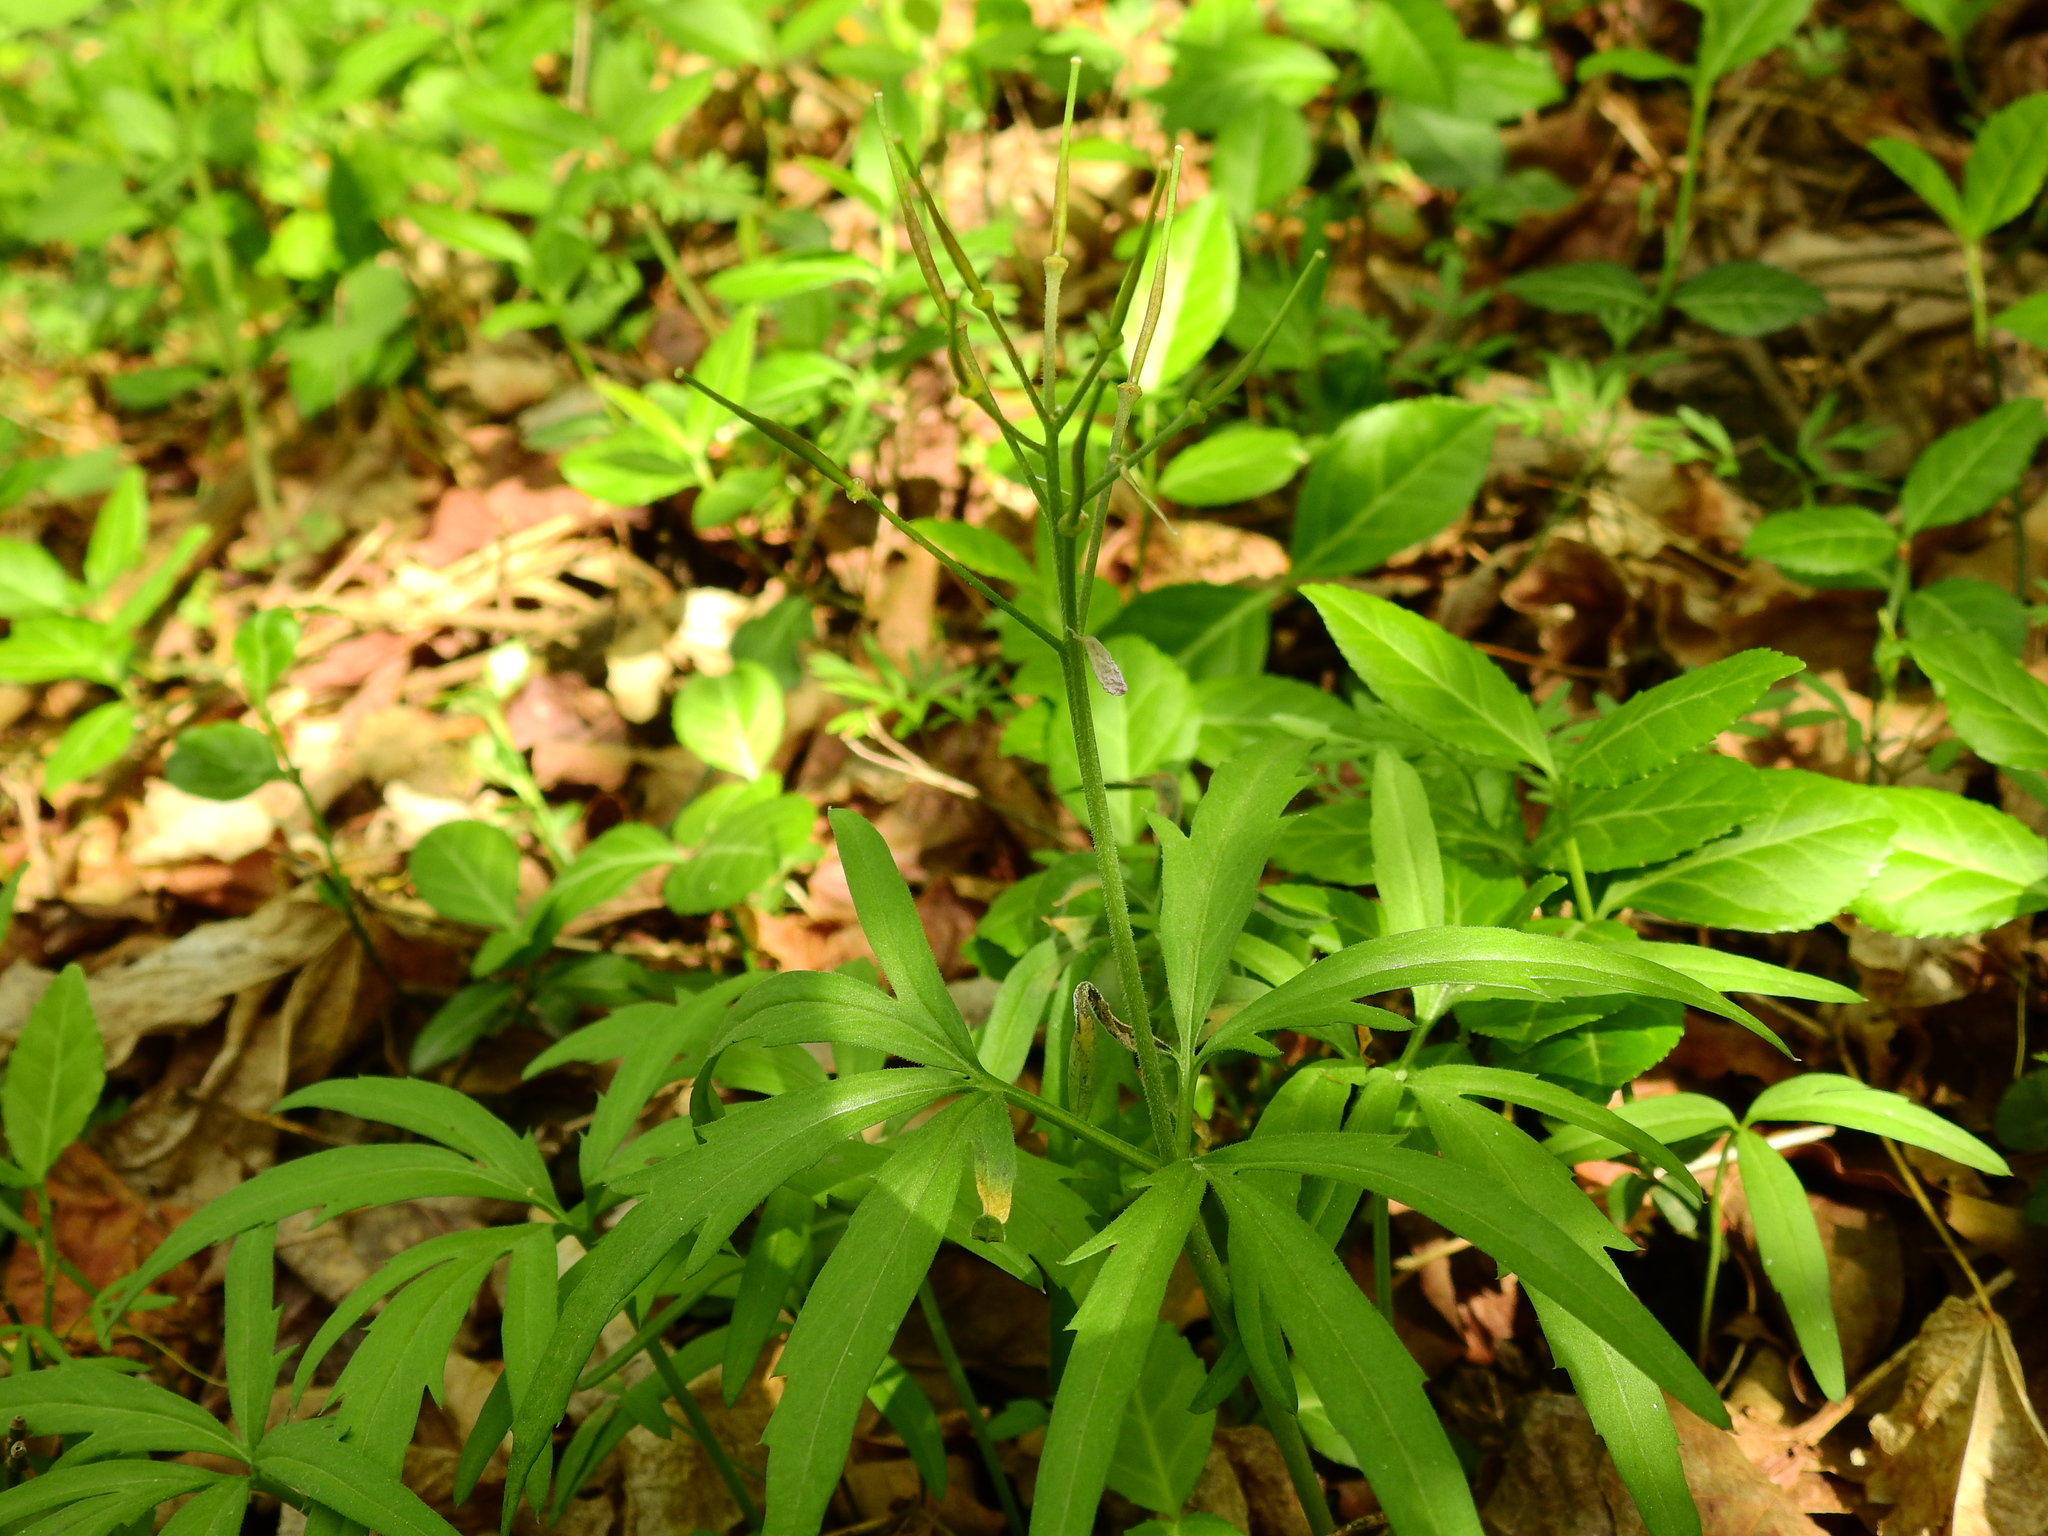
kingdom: Plantae
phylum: Tracheophyta
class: Magnoliopsida
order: Brassicales
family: Brassicaceae
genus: Cardamine
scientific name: Cardamine concatenata
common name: Cut-leaf toothcup
